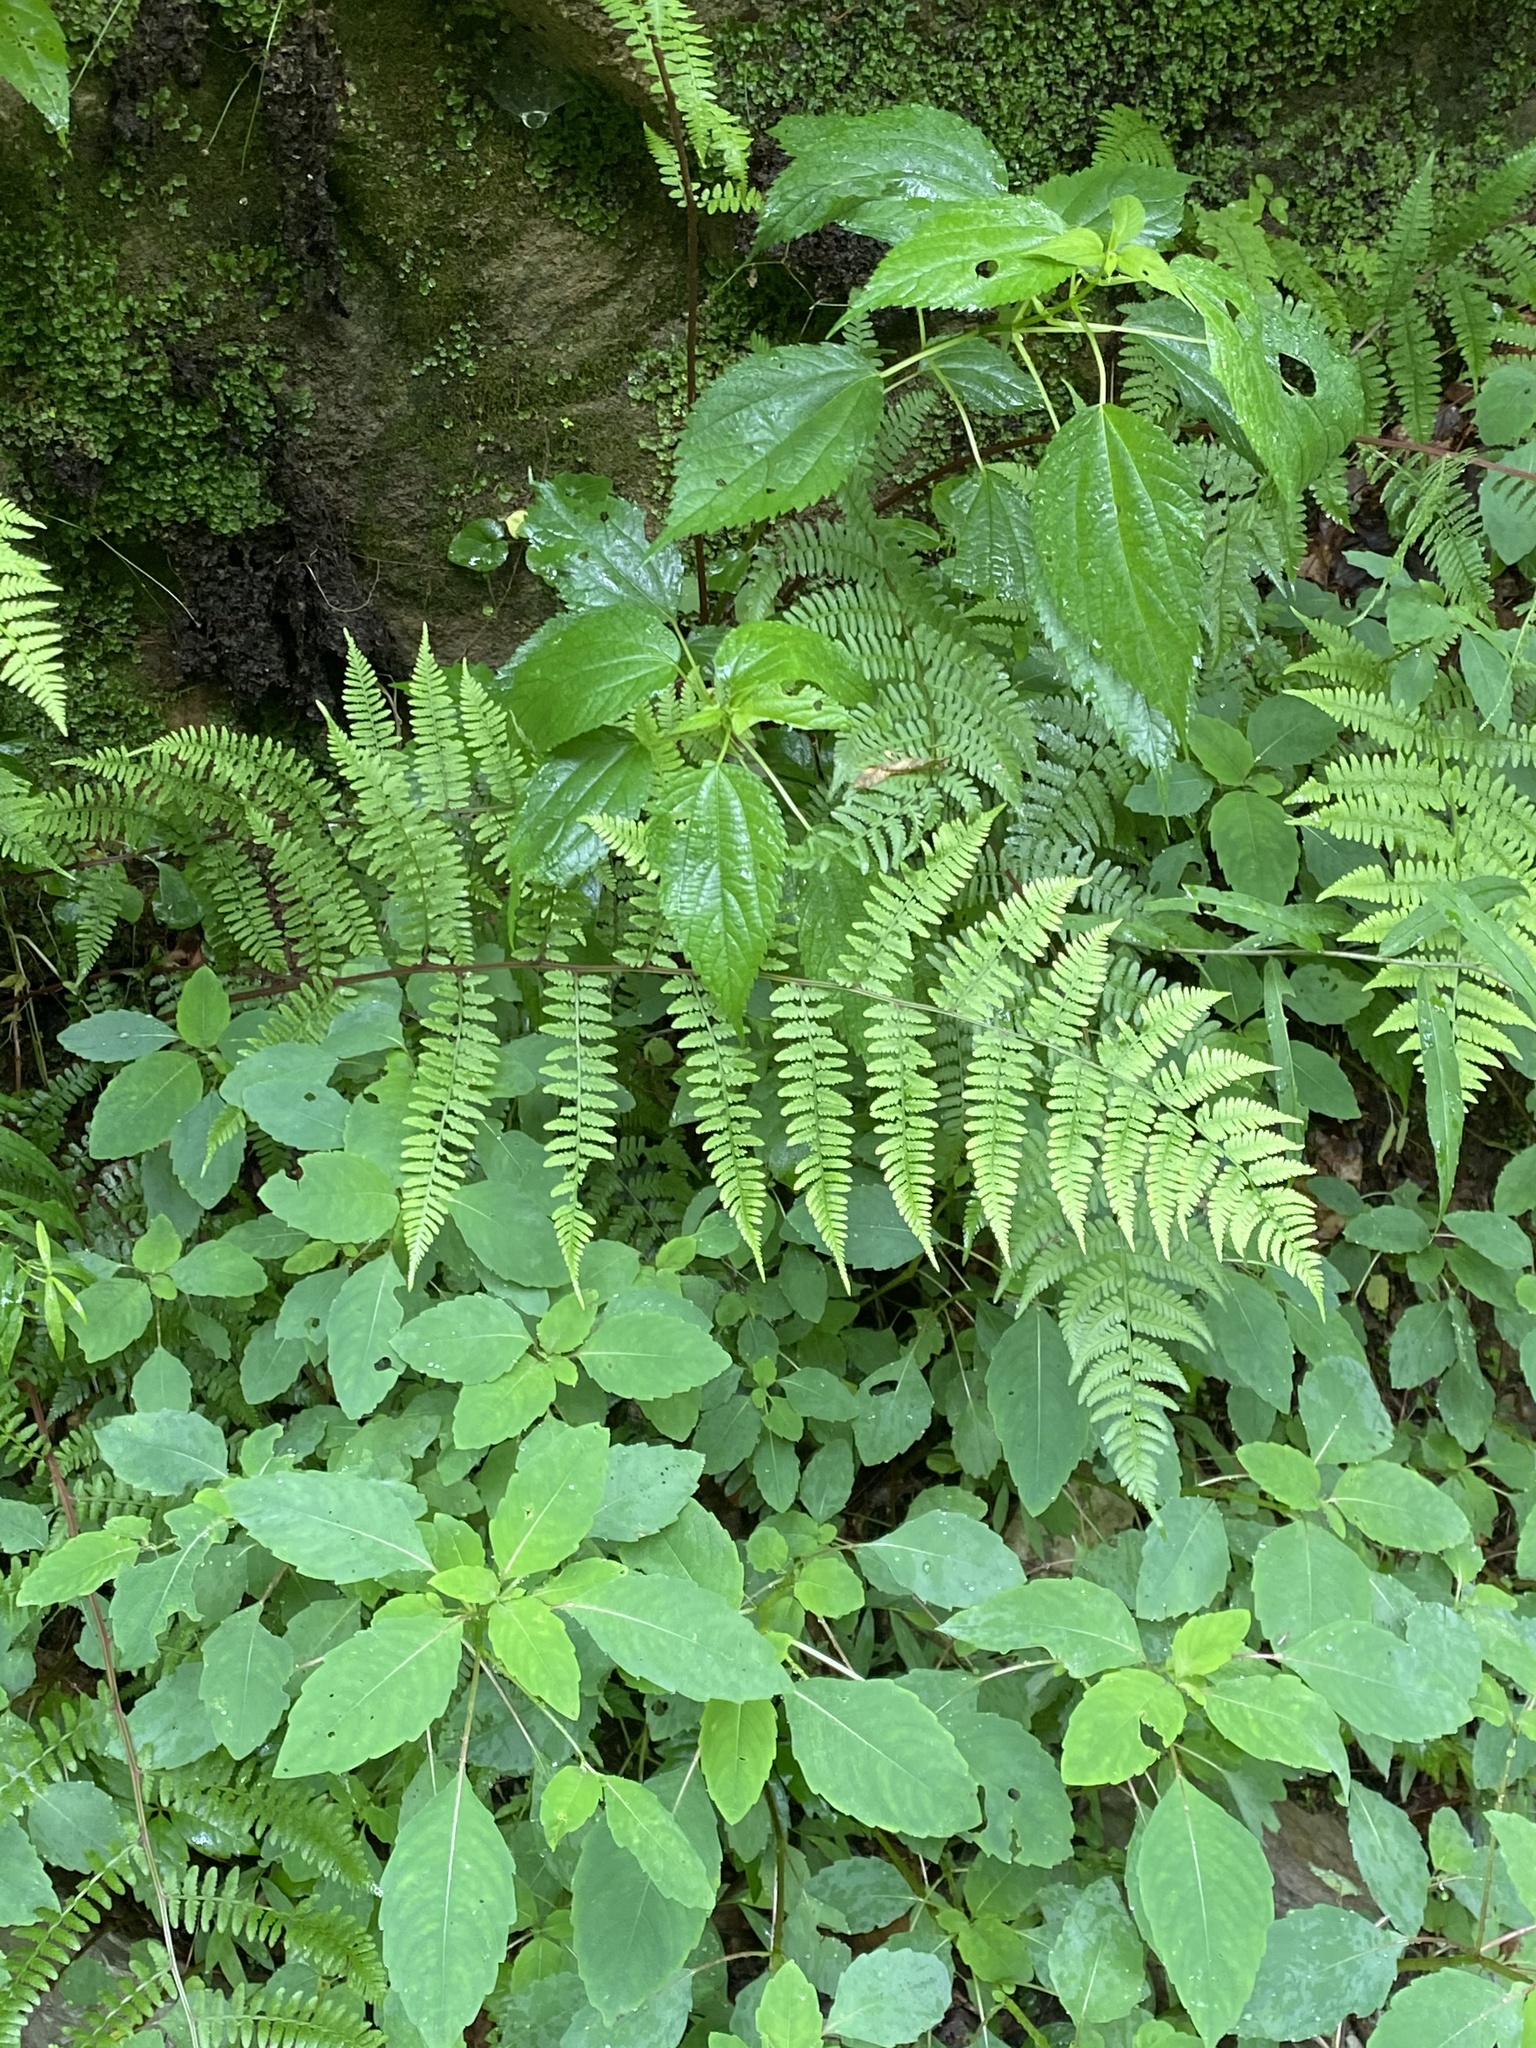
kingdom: Plantae
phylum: Tracheophyta
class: Polypodiopsida
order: Polypodiales
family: Athyriaceae
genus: Athyrium
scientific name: Athyrium asplenioides
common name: Southern lady fern
